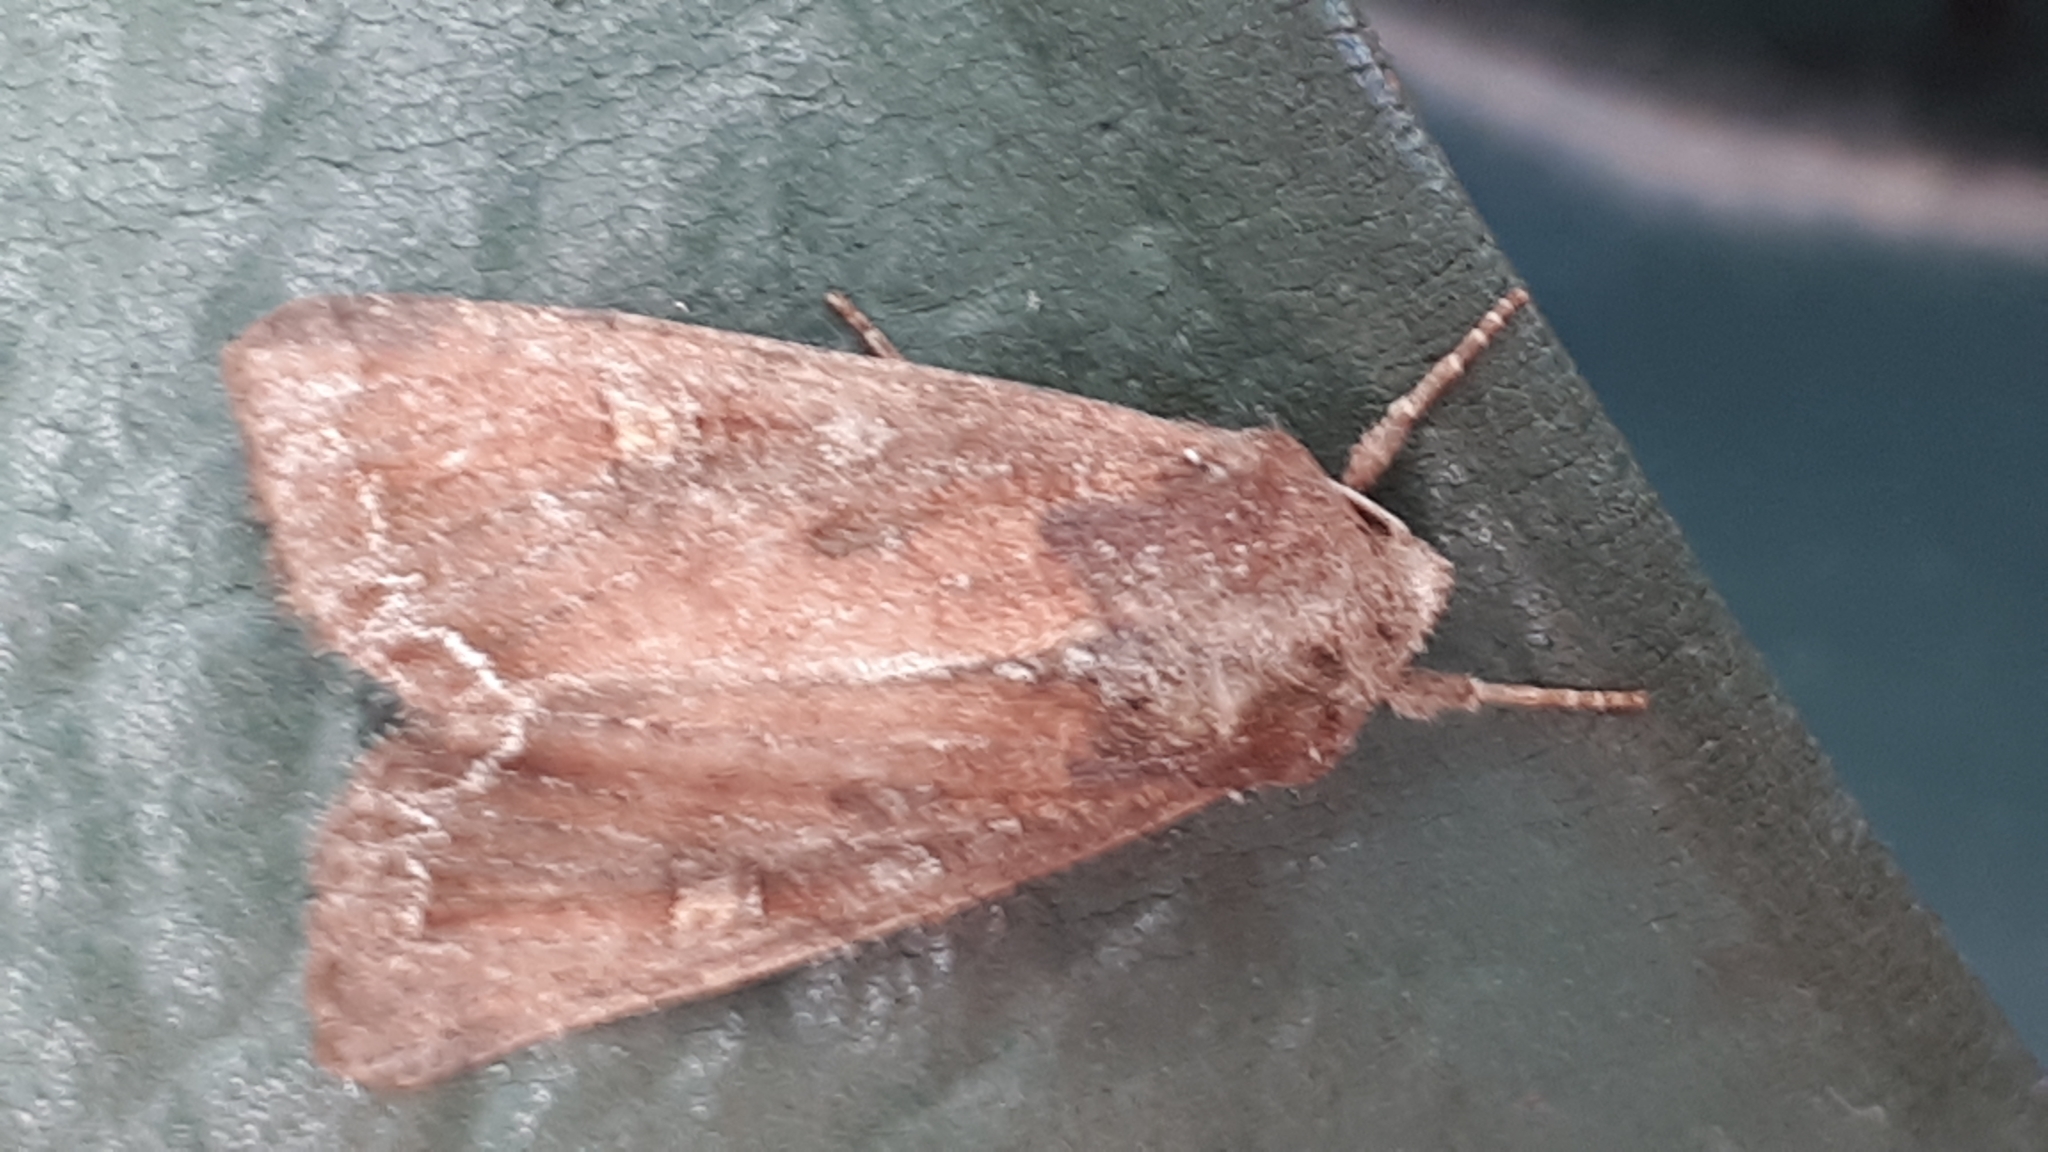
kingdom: Animalia
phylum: Arthropoda
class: Insecta
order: Lepidoptera
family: Noctuidae
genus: Lacanobia
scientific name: Lacanobia oleracea
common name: Bright-line brown-eye
